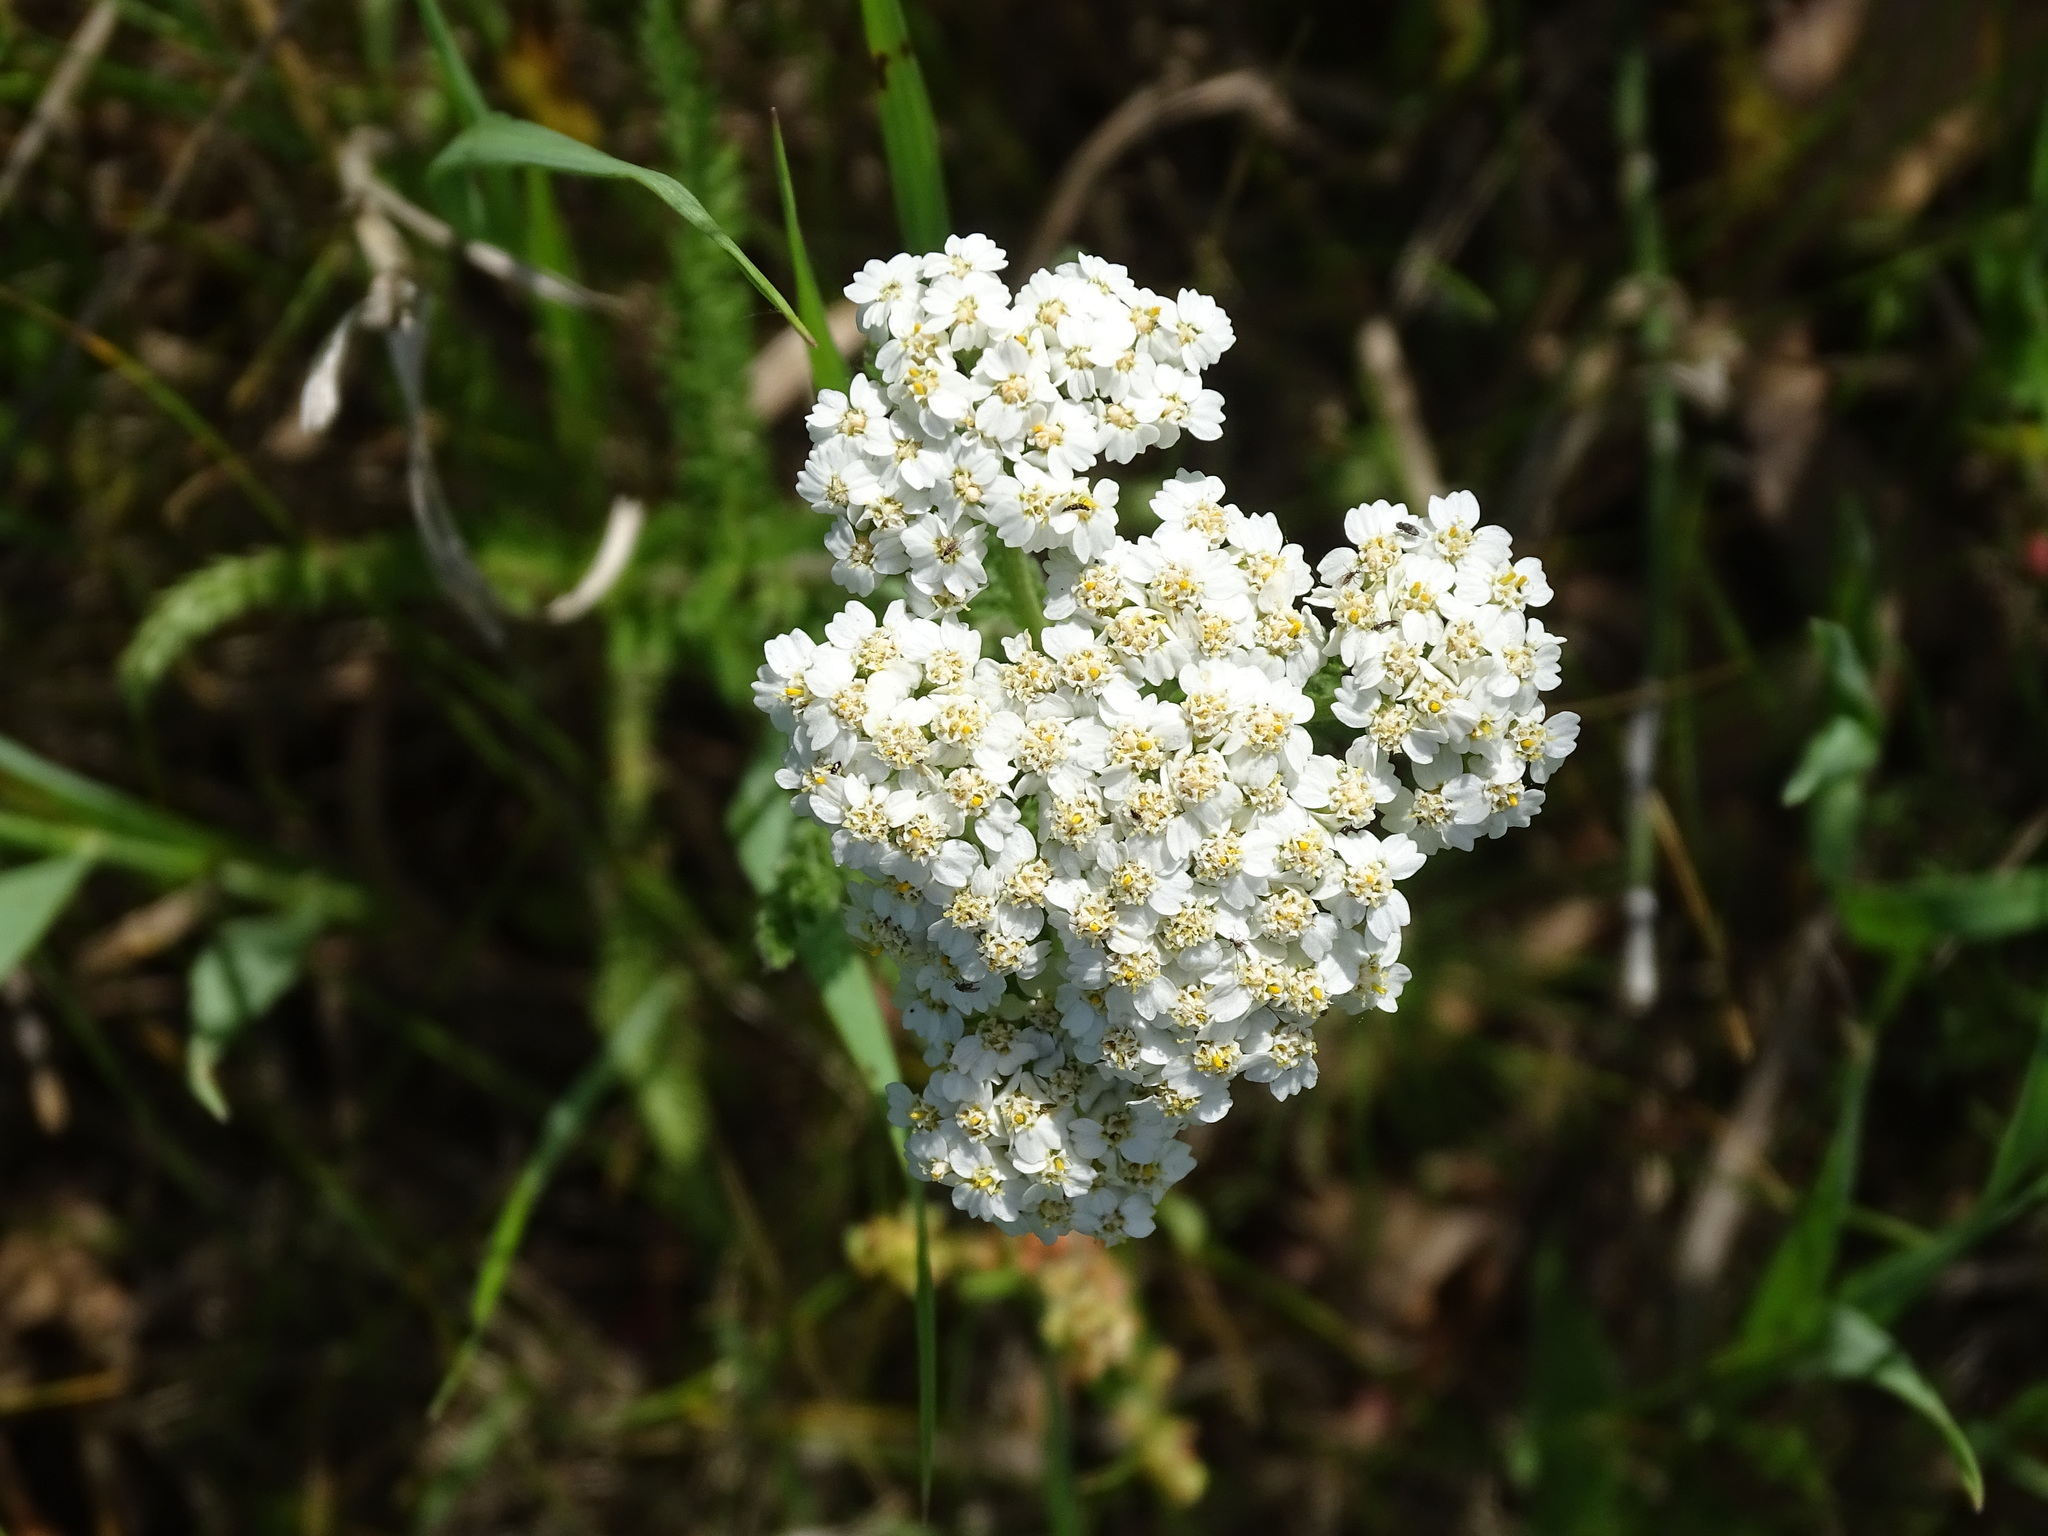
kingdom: Plantae
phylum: Tracheophyta
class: Magnoliopsida
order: Asterales
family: Asteraceae
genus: Achillea
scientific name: Achillea millefolium
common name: Yarrow
